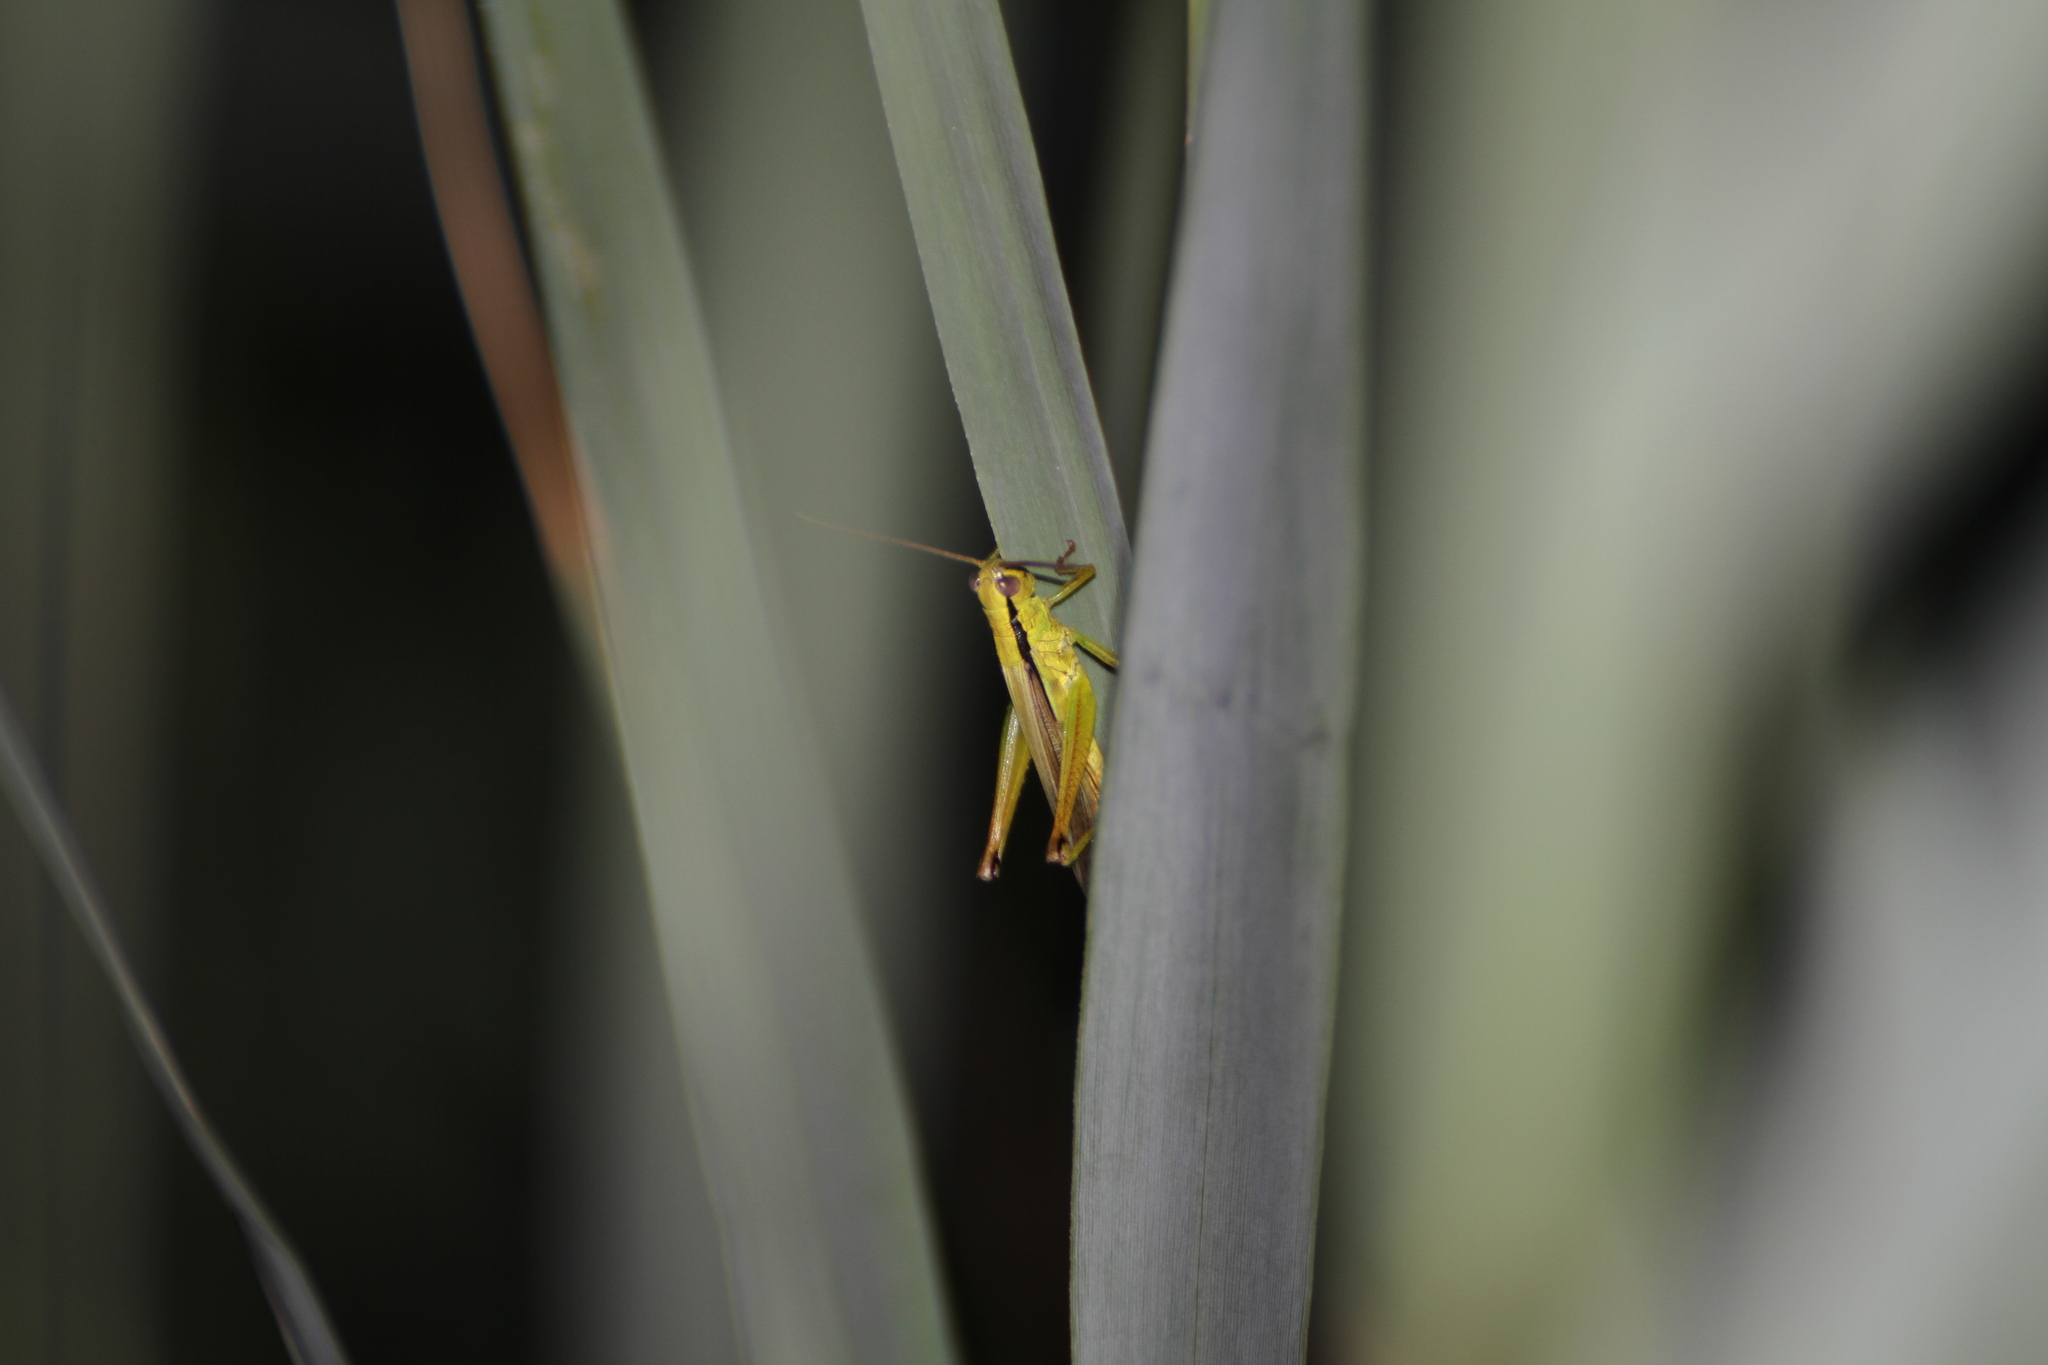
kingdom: Animalia
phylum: Arthropoda
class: Insecta
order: Orthoptera
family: Acrididae
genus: Mecostethus
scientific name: Mecostethus parapleurus
